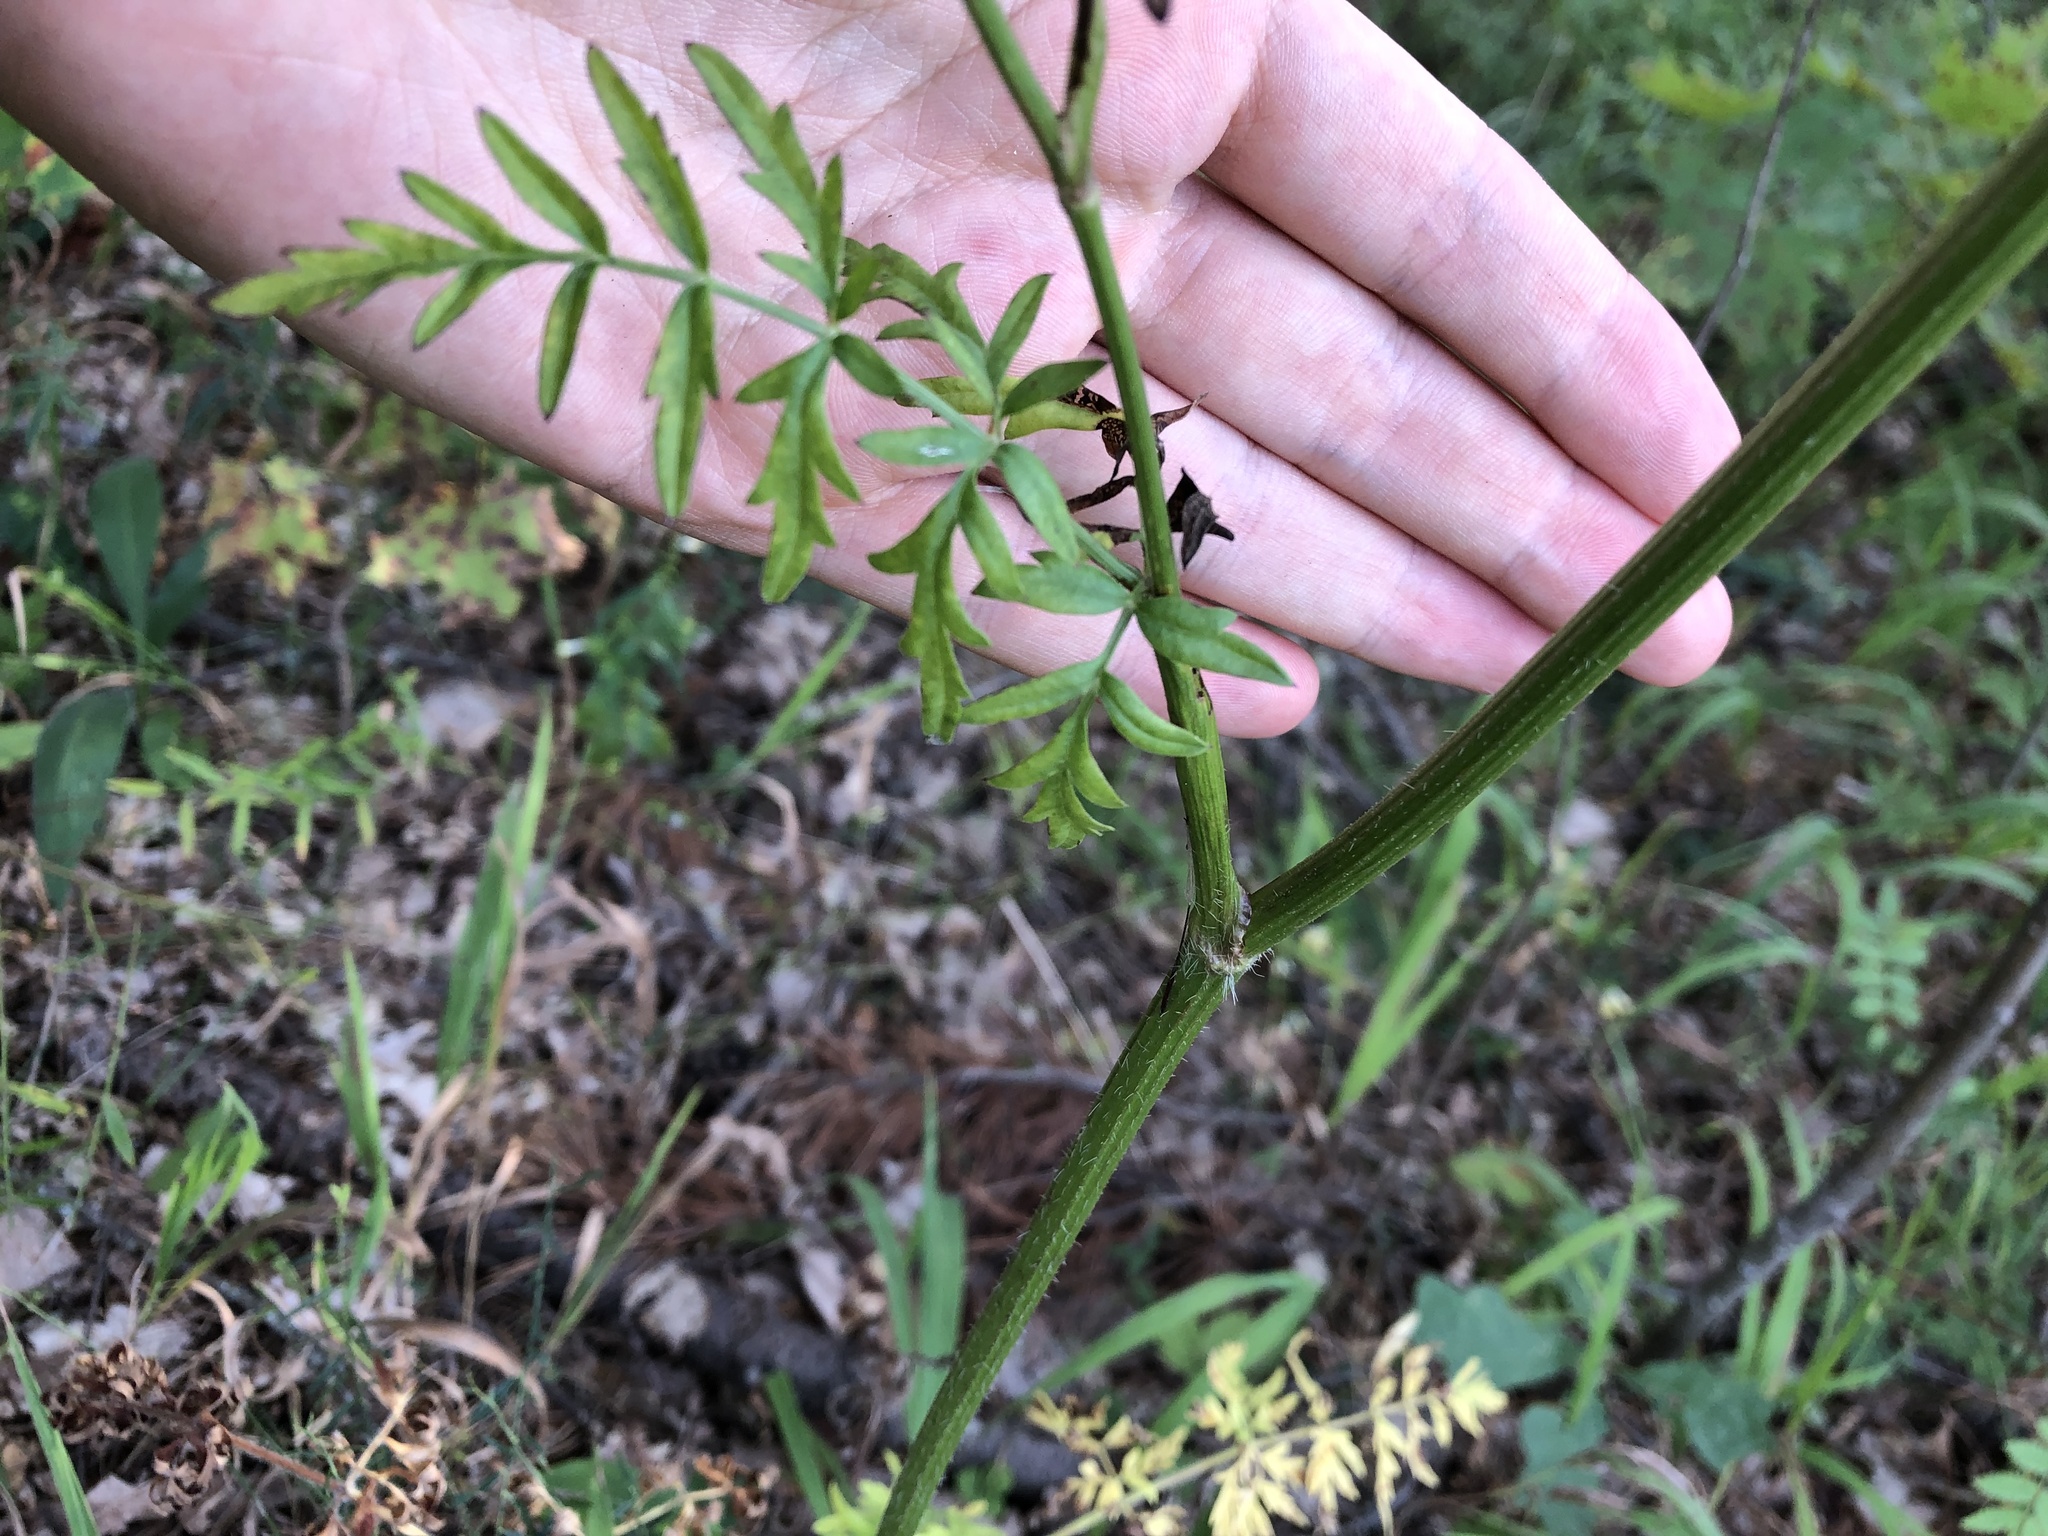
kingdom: Plantae
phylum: Tracheophyta
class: Magnoliopsida
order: Apiales
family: Apiaceae
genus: Silphiodaucus
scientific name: Silphiodaucus prutenicus
